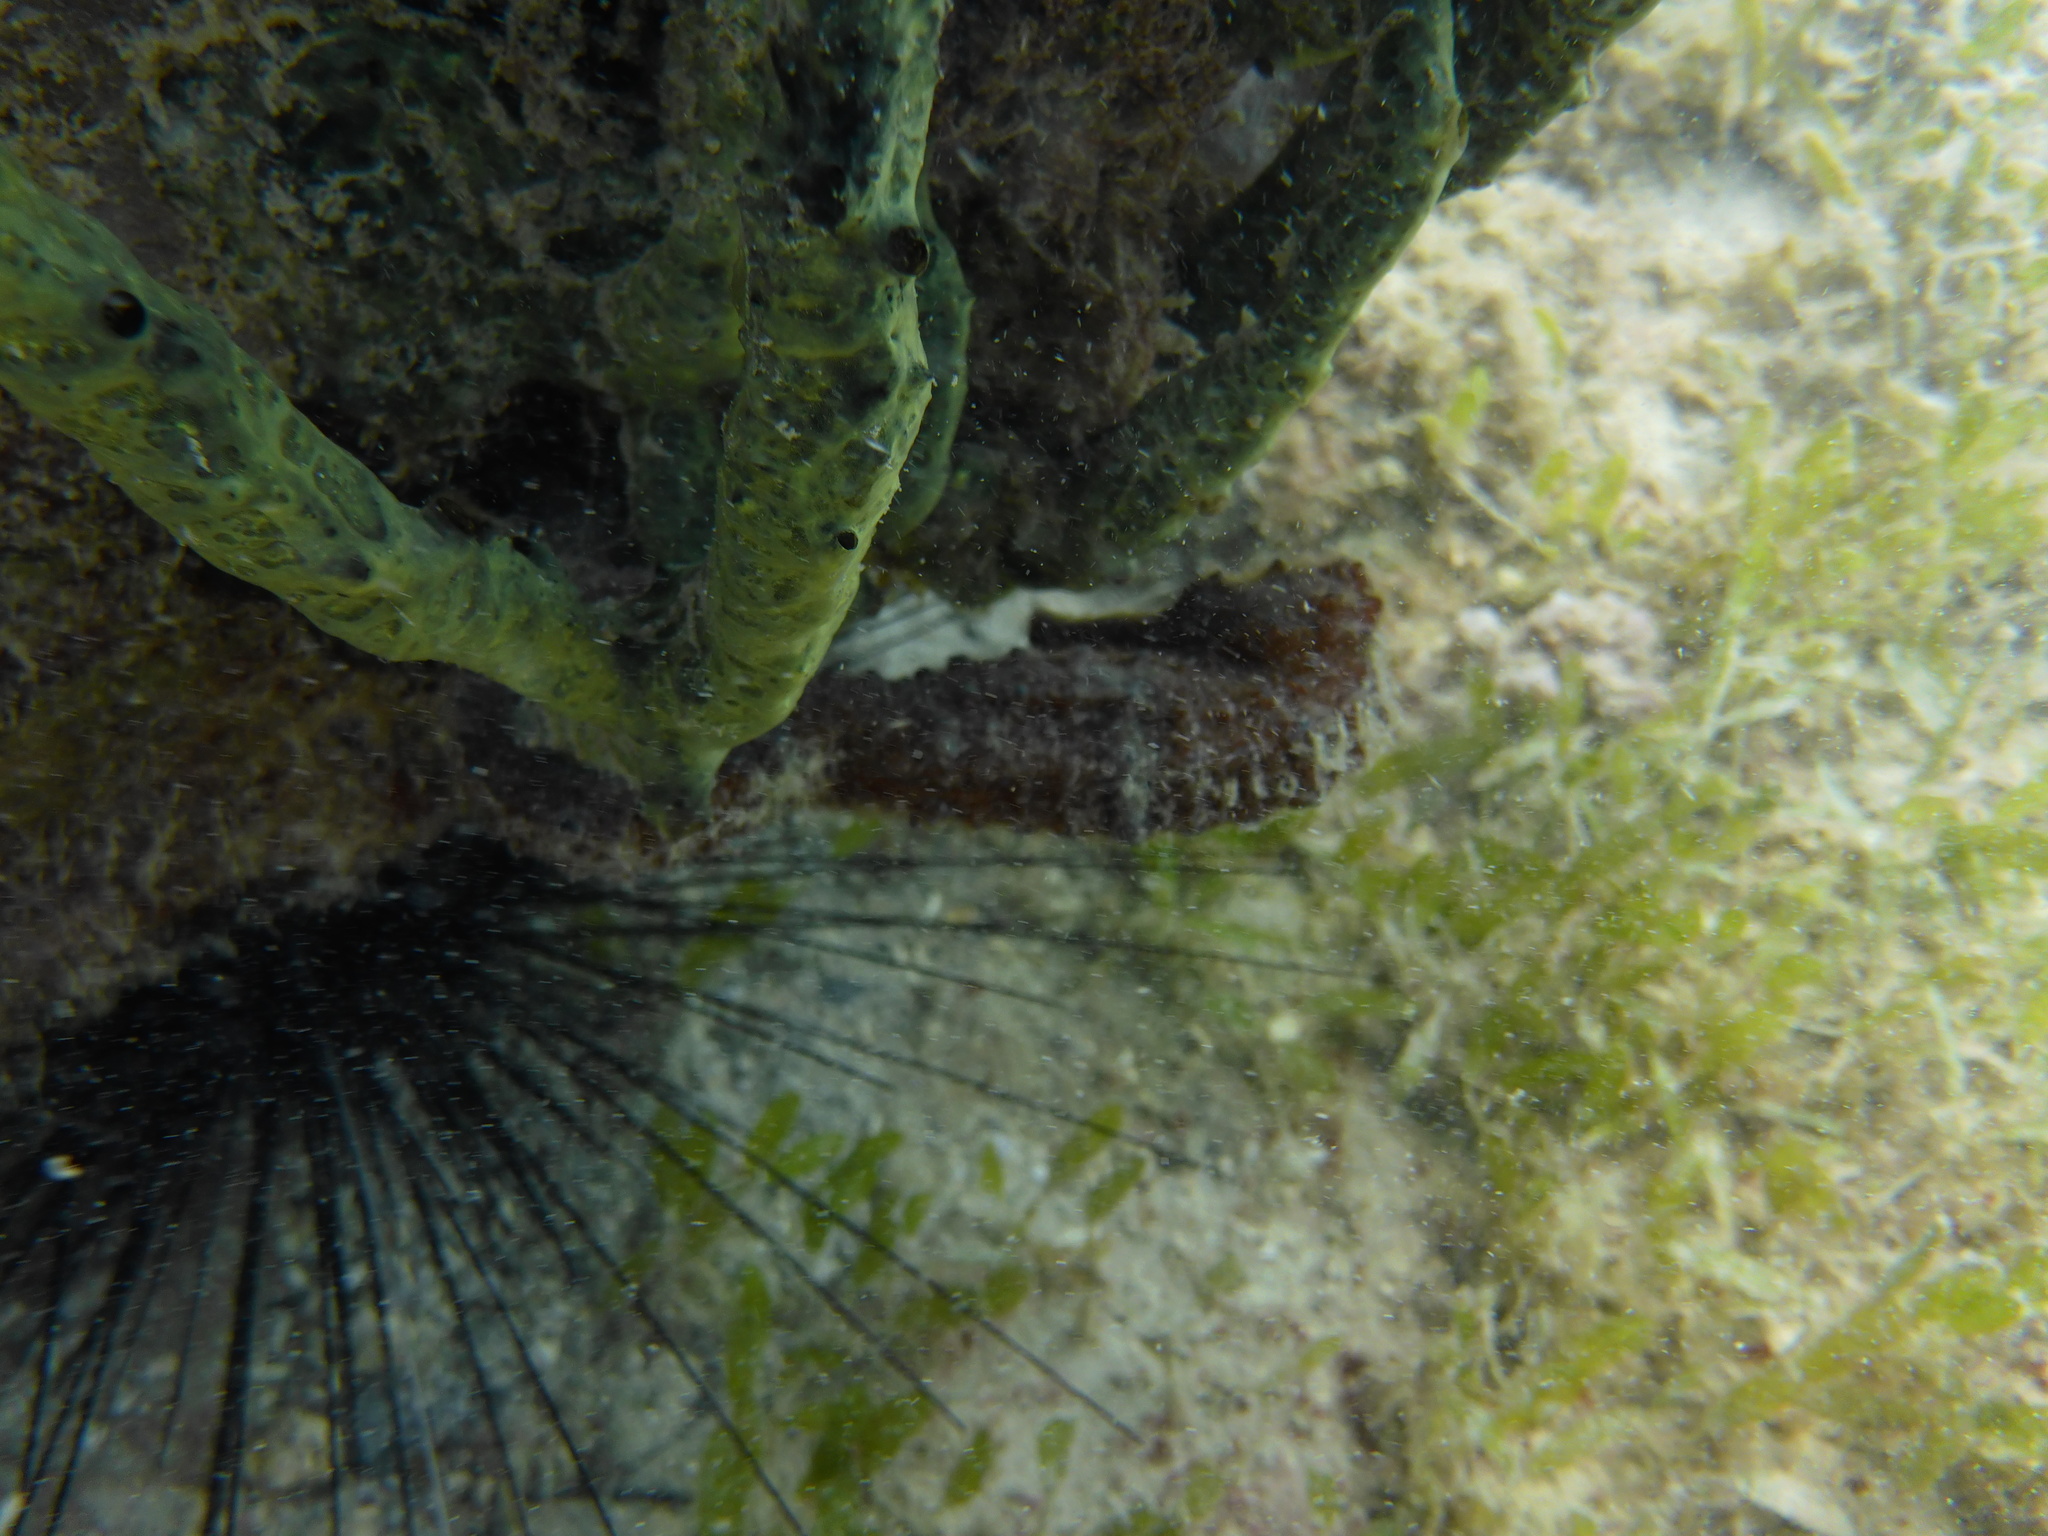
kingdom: Animalia
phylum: Chordata
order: Syngnathiformes
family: Syngnathidae
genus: Hippocampus
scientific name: Hippocampus reidi
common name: Slender seahorse
